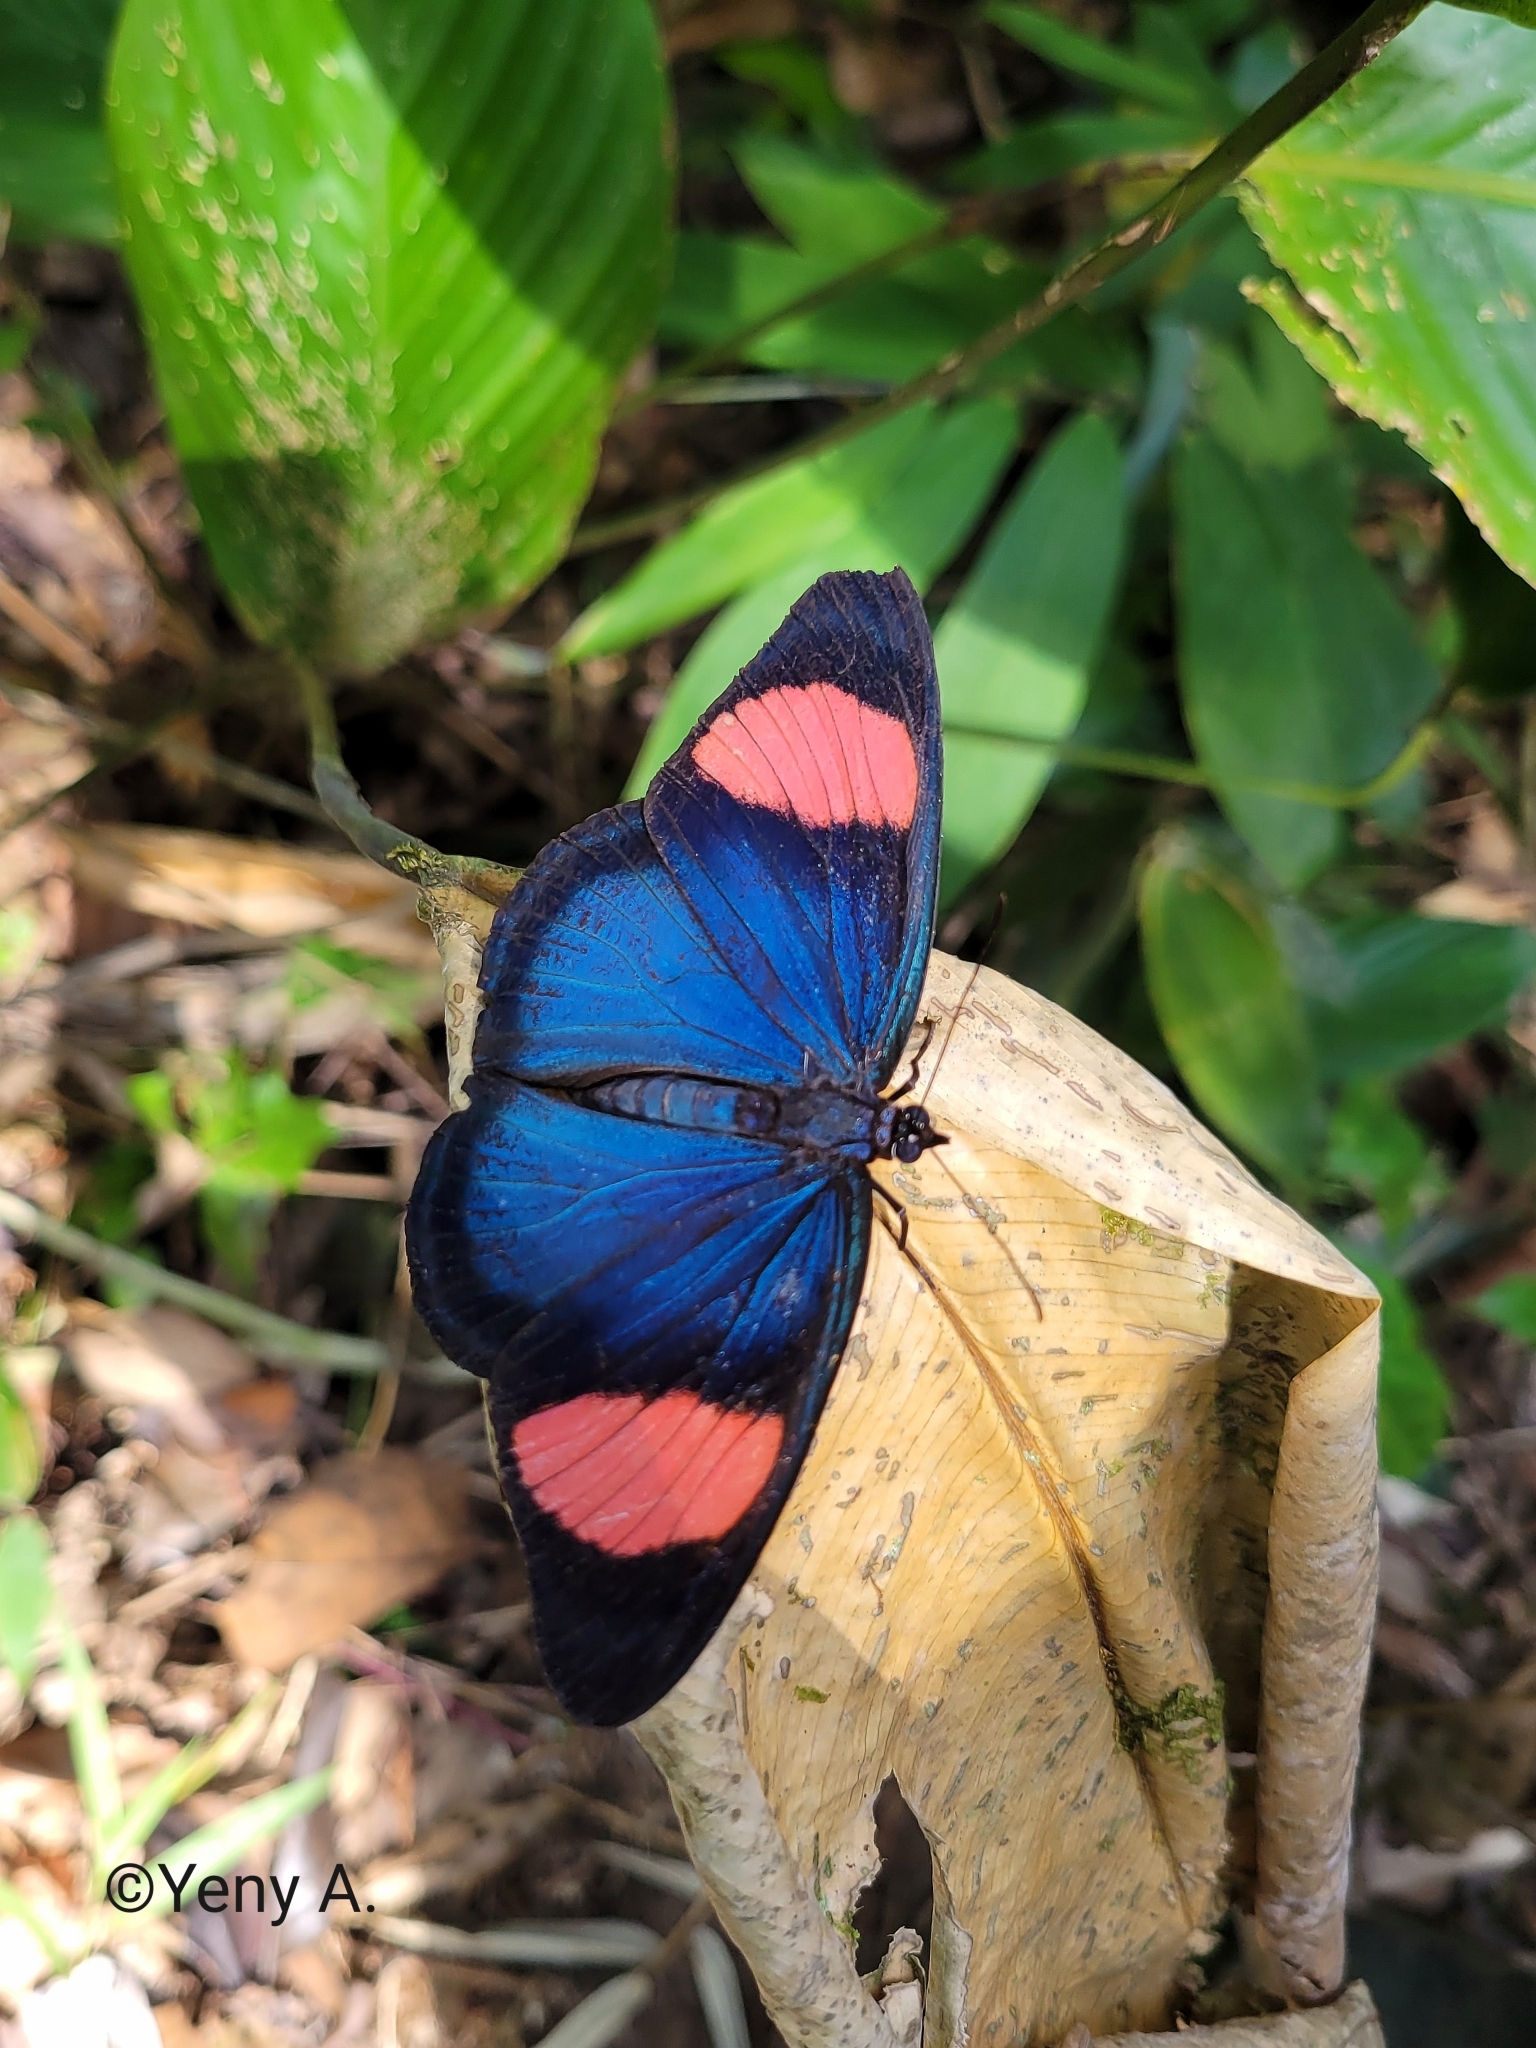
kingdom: Animalia
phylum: Arthropoda
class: Insecta
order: Lepidoptera
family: Nymphalidae
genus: Batesia
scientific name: Batesia hypochlora
